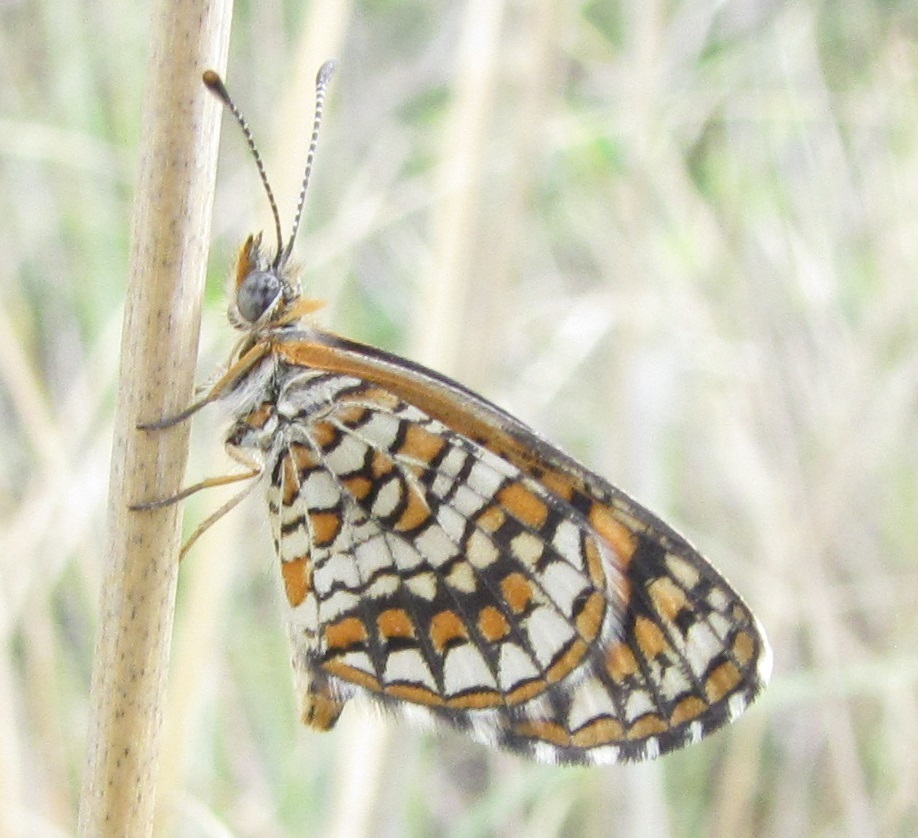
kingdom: Animalia
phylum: Arthropoda
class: Insecta
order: Lepidoptera
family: Nymphalidae
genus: Texola
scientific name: Texola
